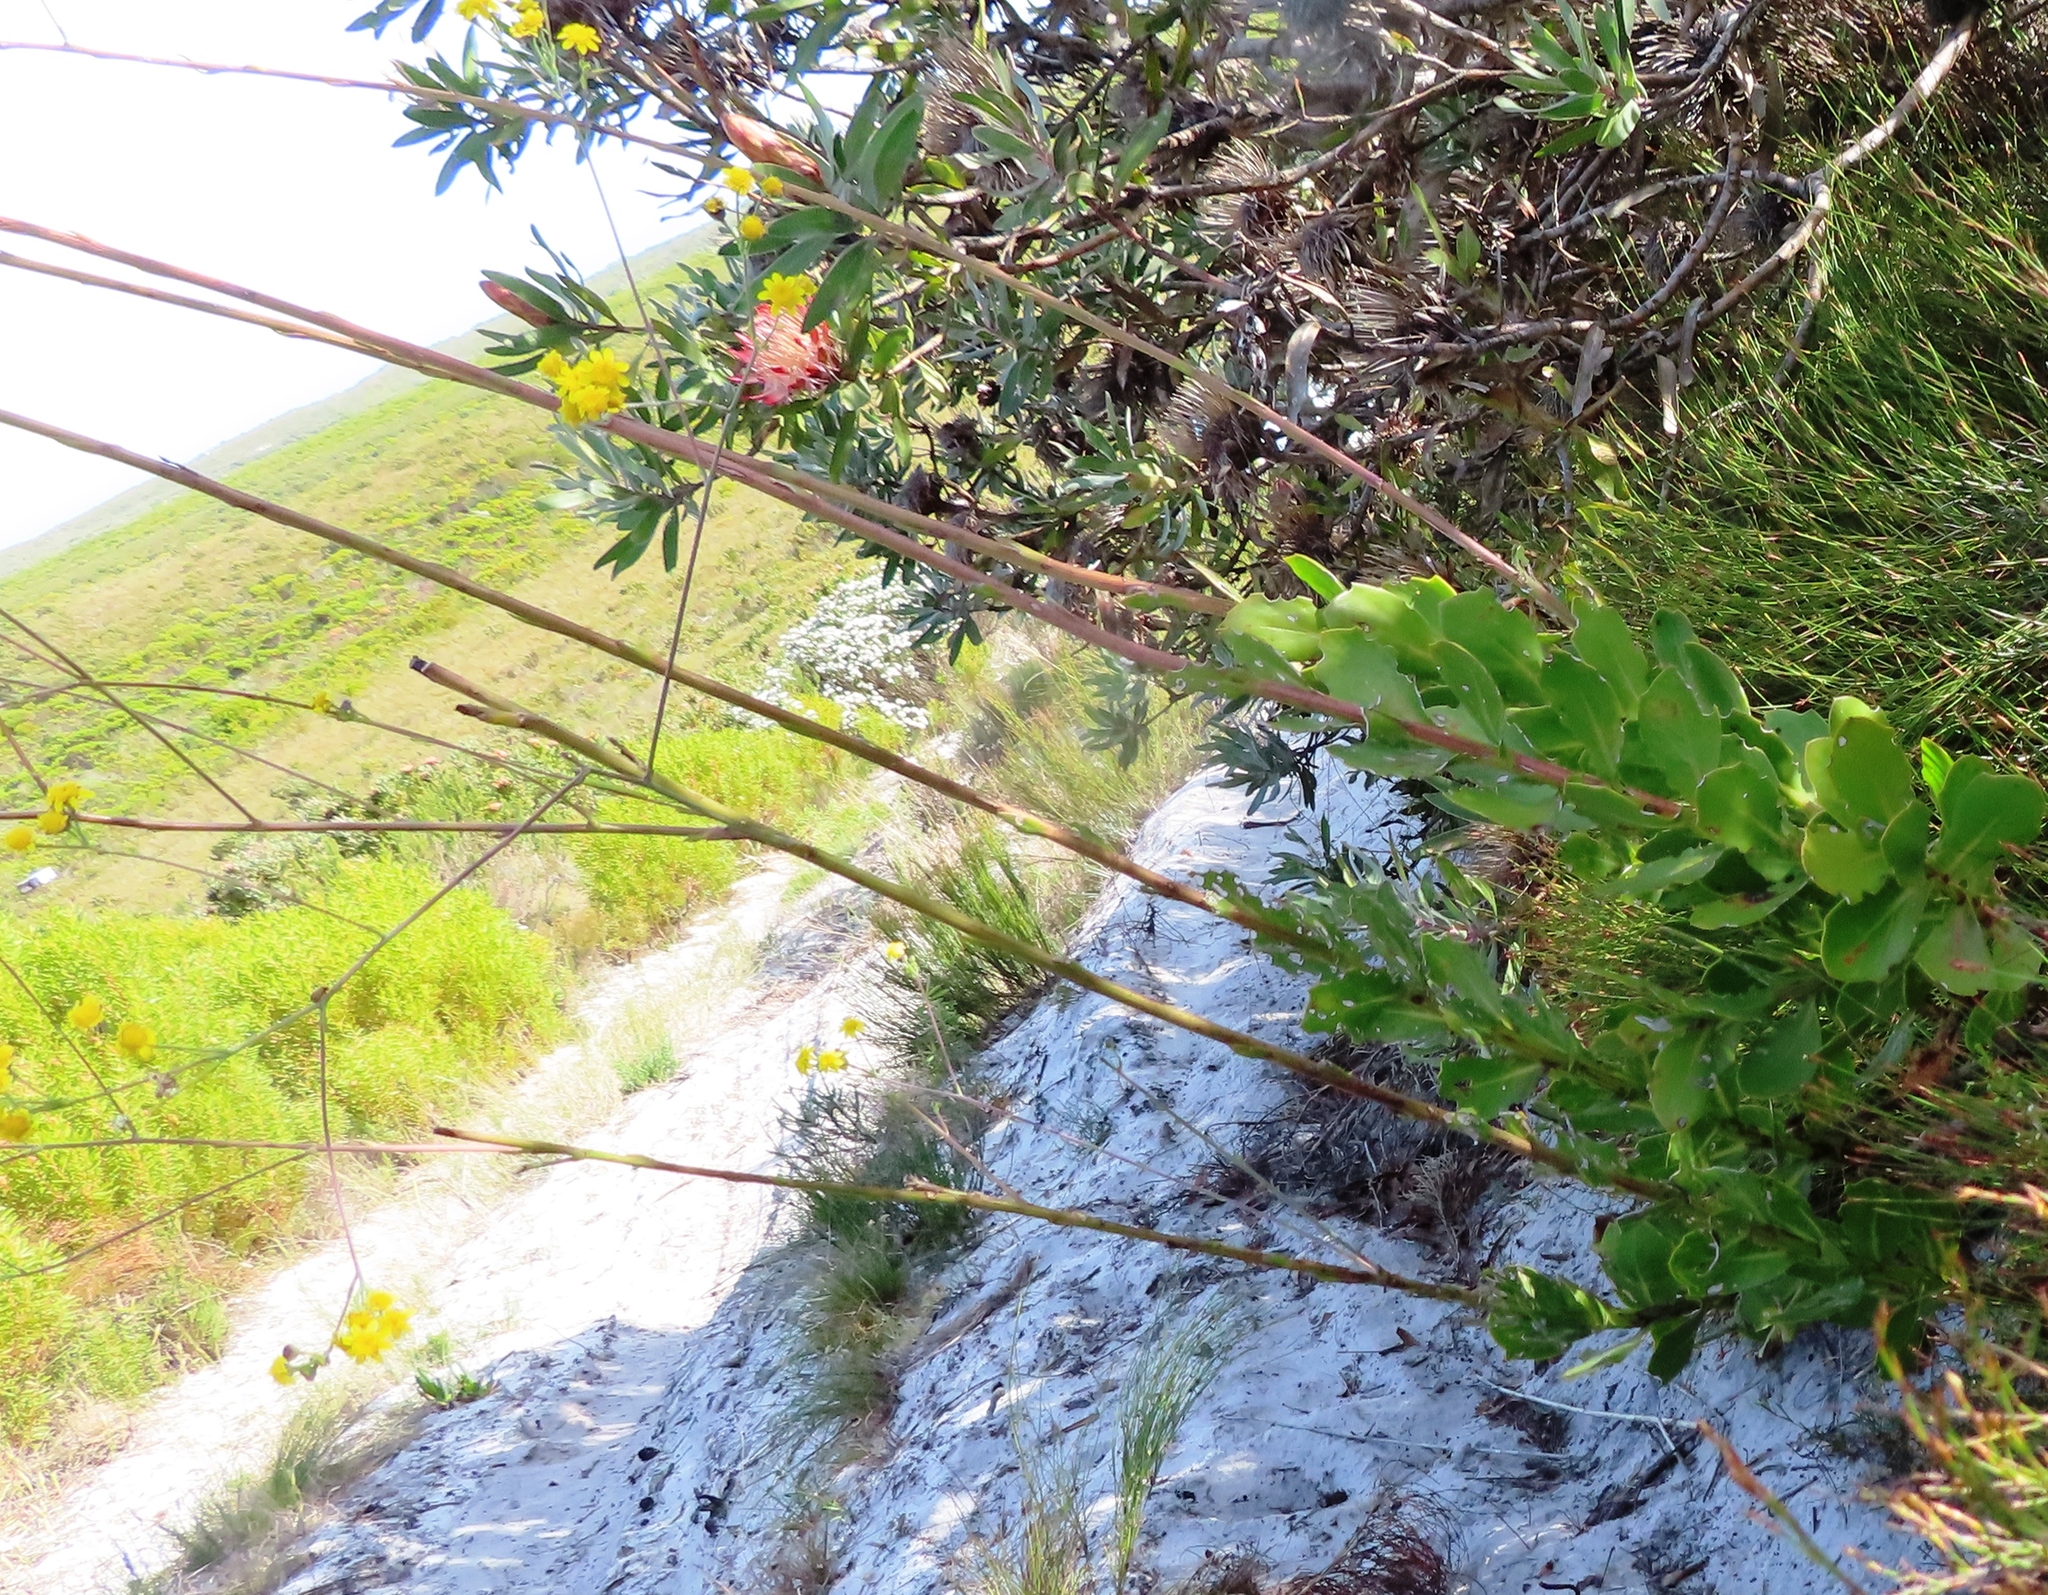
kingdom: Plantae
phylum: Tracheophyta
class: Magnoliopsida
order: Asterales
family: Asteraceae
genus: Othonna
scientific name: Othonna quinquedentata
